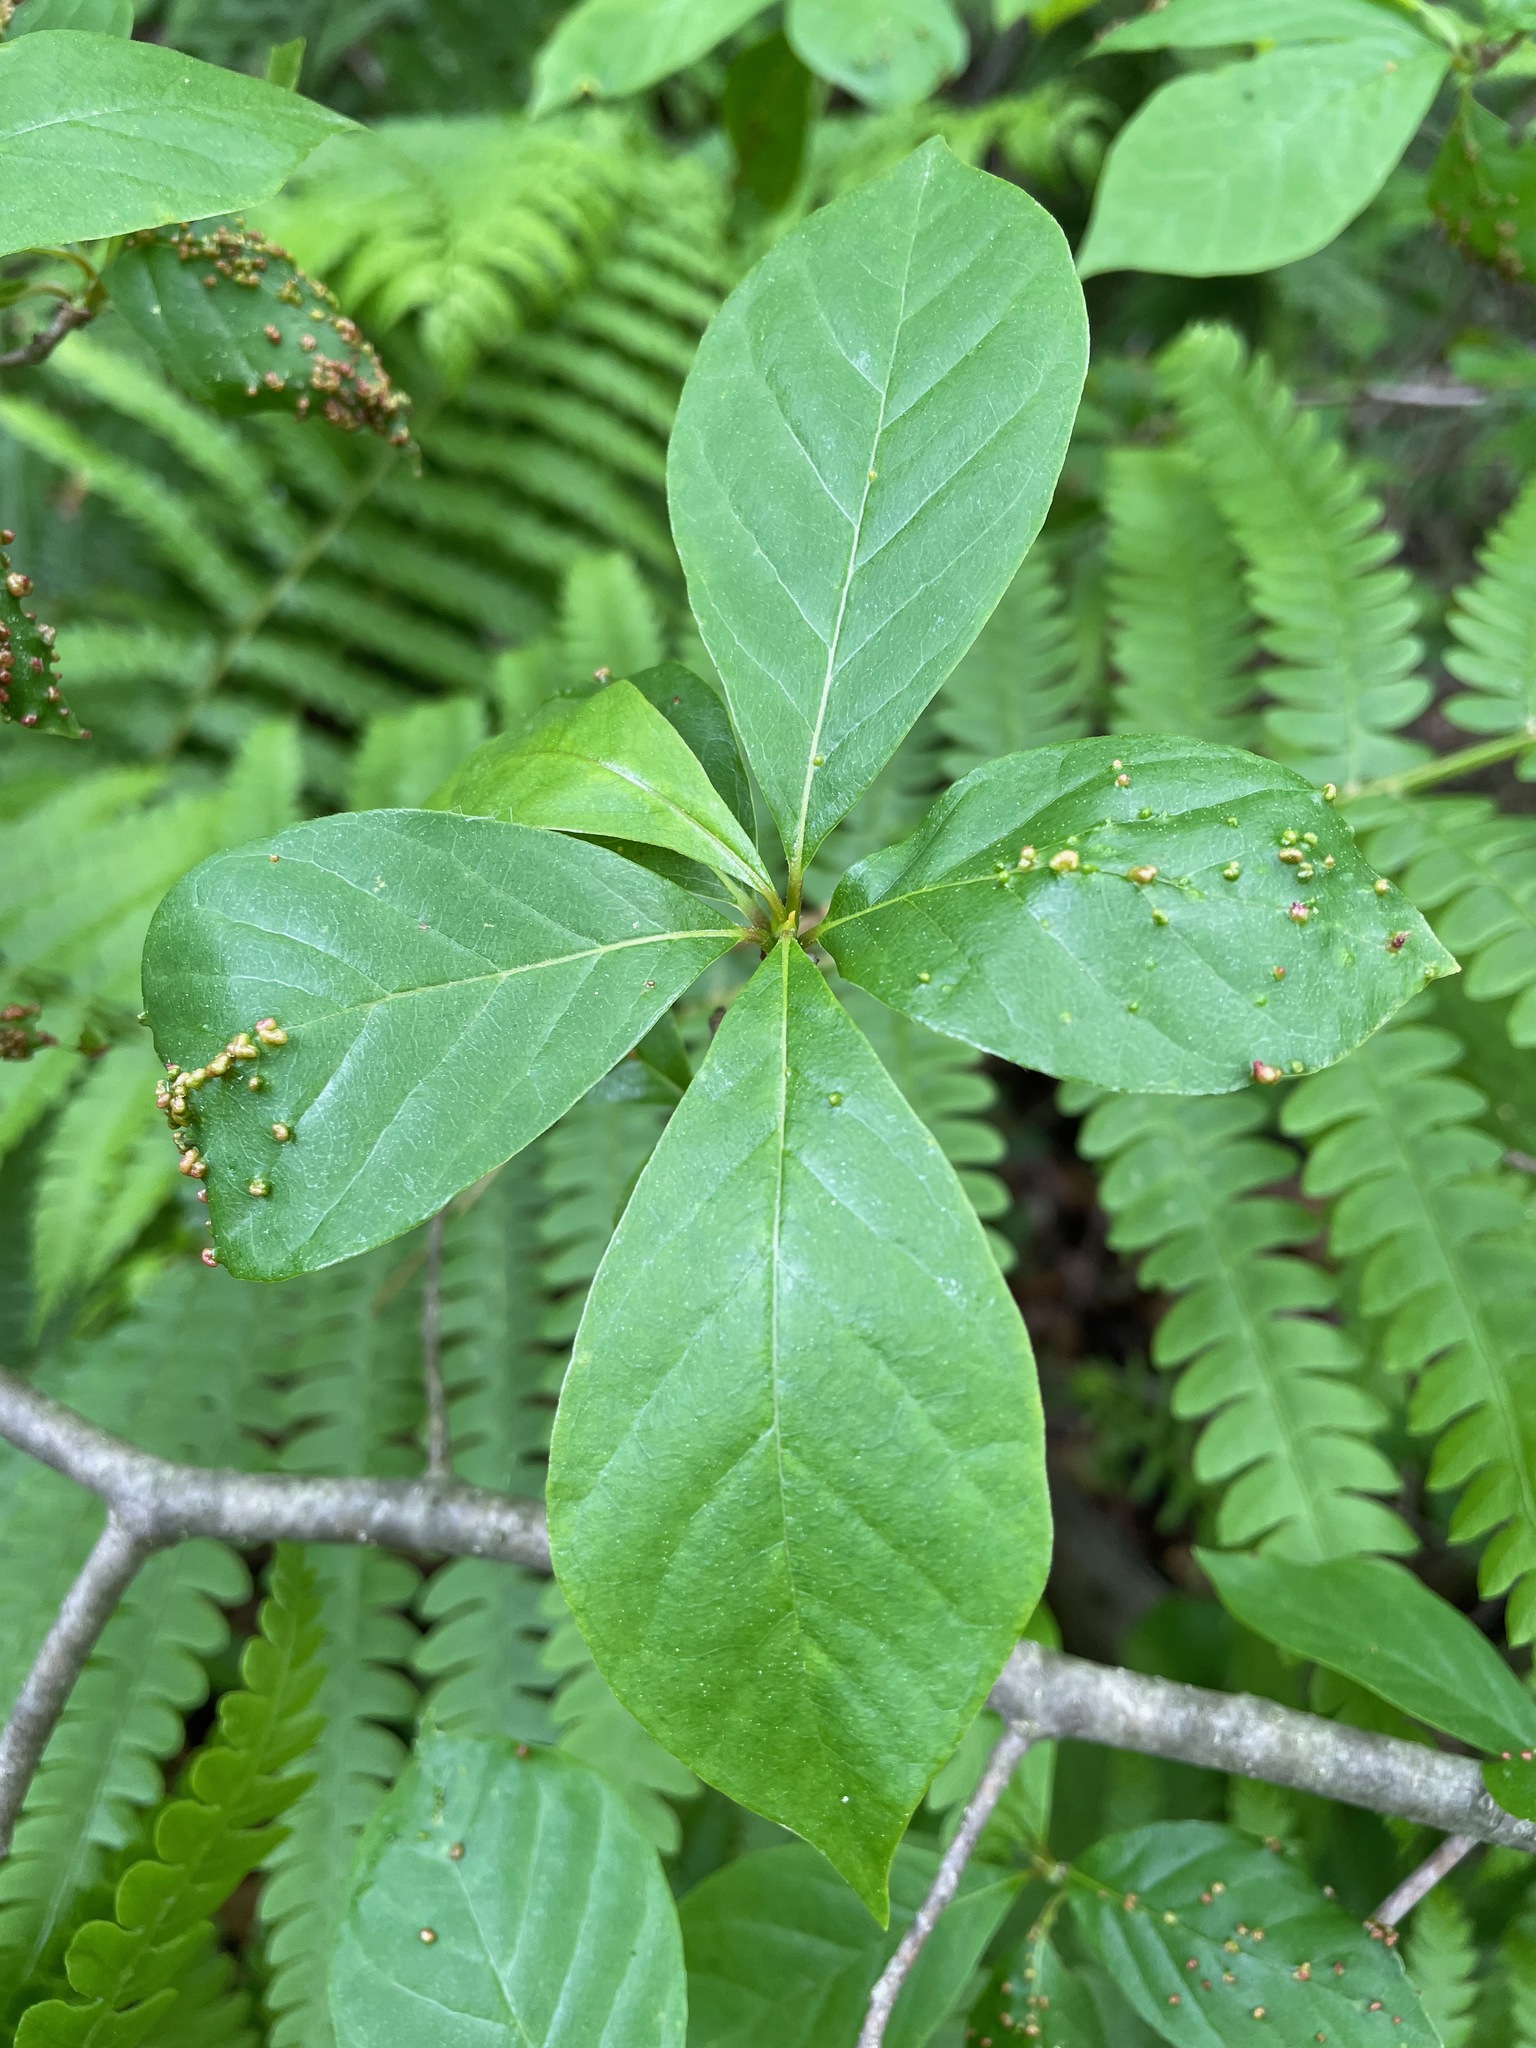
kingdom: Plantae
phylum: Tracheophyta
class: Magnoliopsida
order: Cornales
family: Nyssaceae
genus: Nyssa
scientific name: Nyssa sylvatica
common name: Black tupelo
